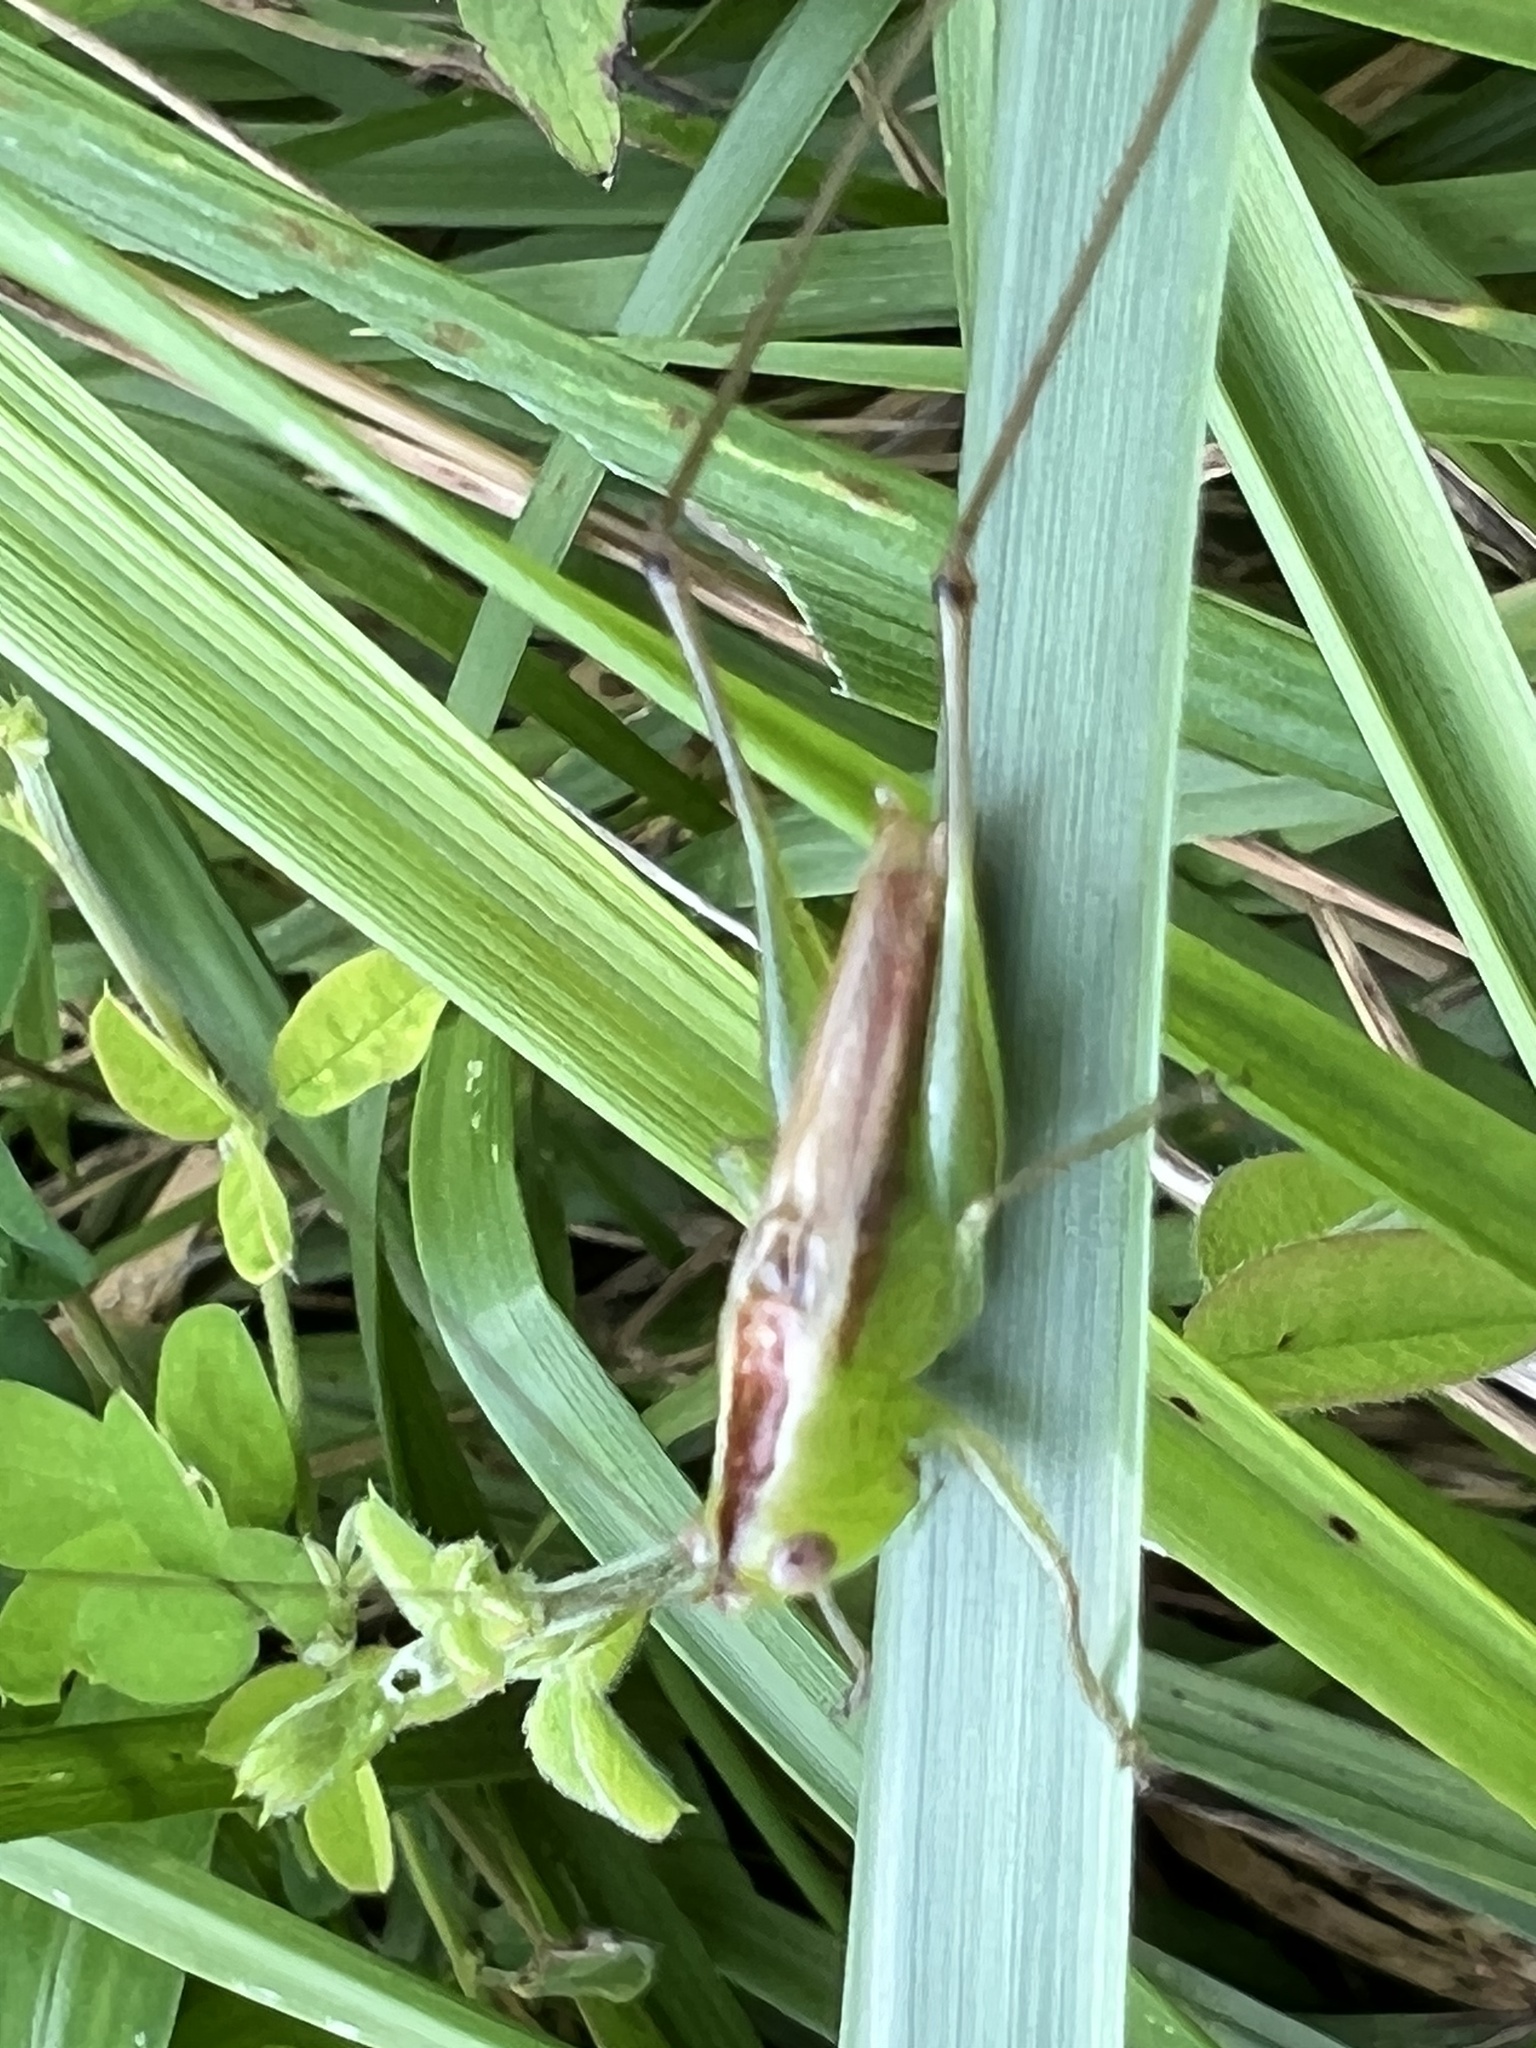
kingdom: Animalia
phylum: Arthropoda
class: Insecta
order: Orthoptera
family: Tettigoniidae
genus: Conocephalus
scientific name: Conocephalus brevipennis
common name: Short-winged meadow katydid
